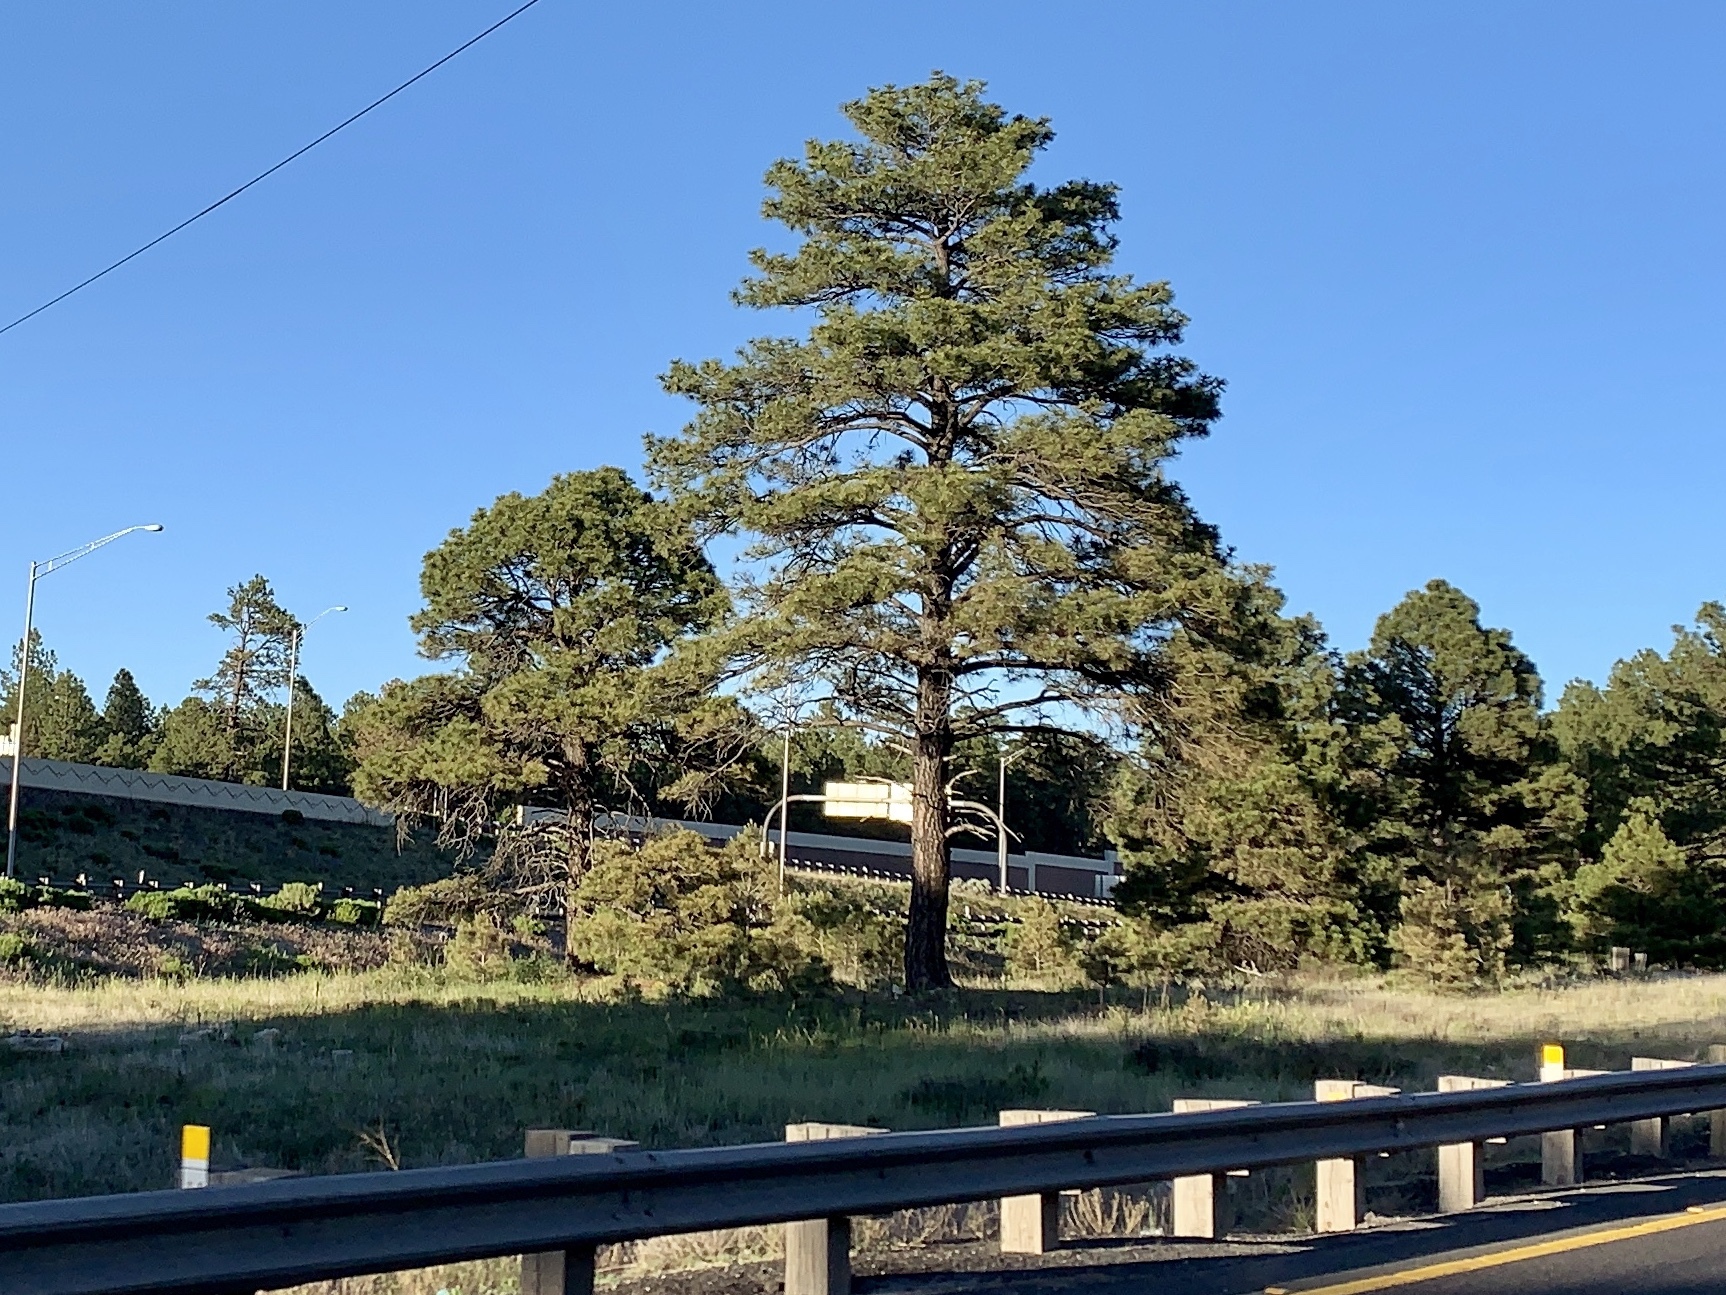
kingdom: Plantae
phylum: Tracheophyta
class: Pinopsida
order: Pinales
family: Pinaceae
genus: Pinus
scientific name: Pinus ponderosa
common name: Western yellow-pine
